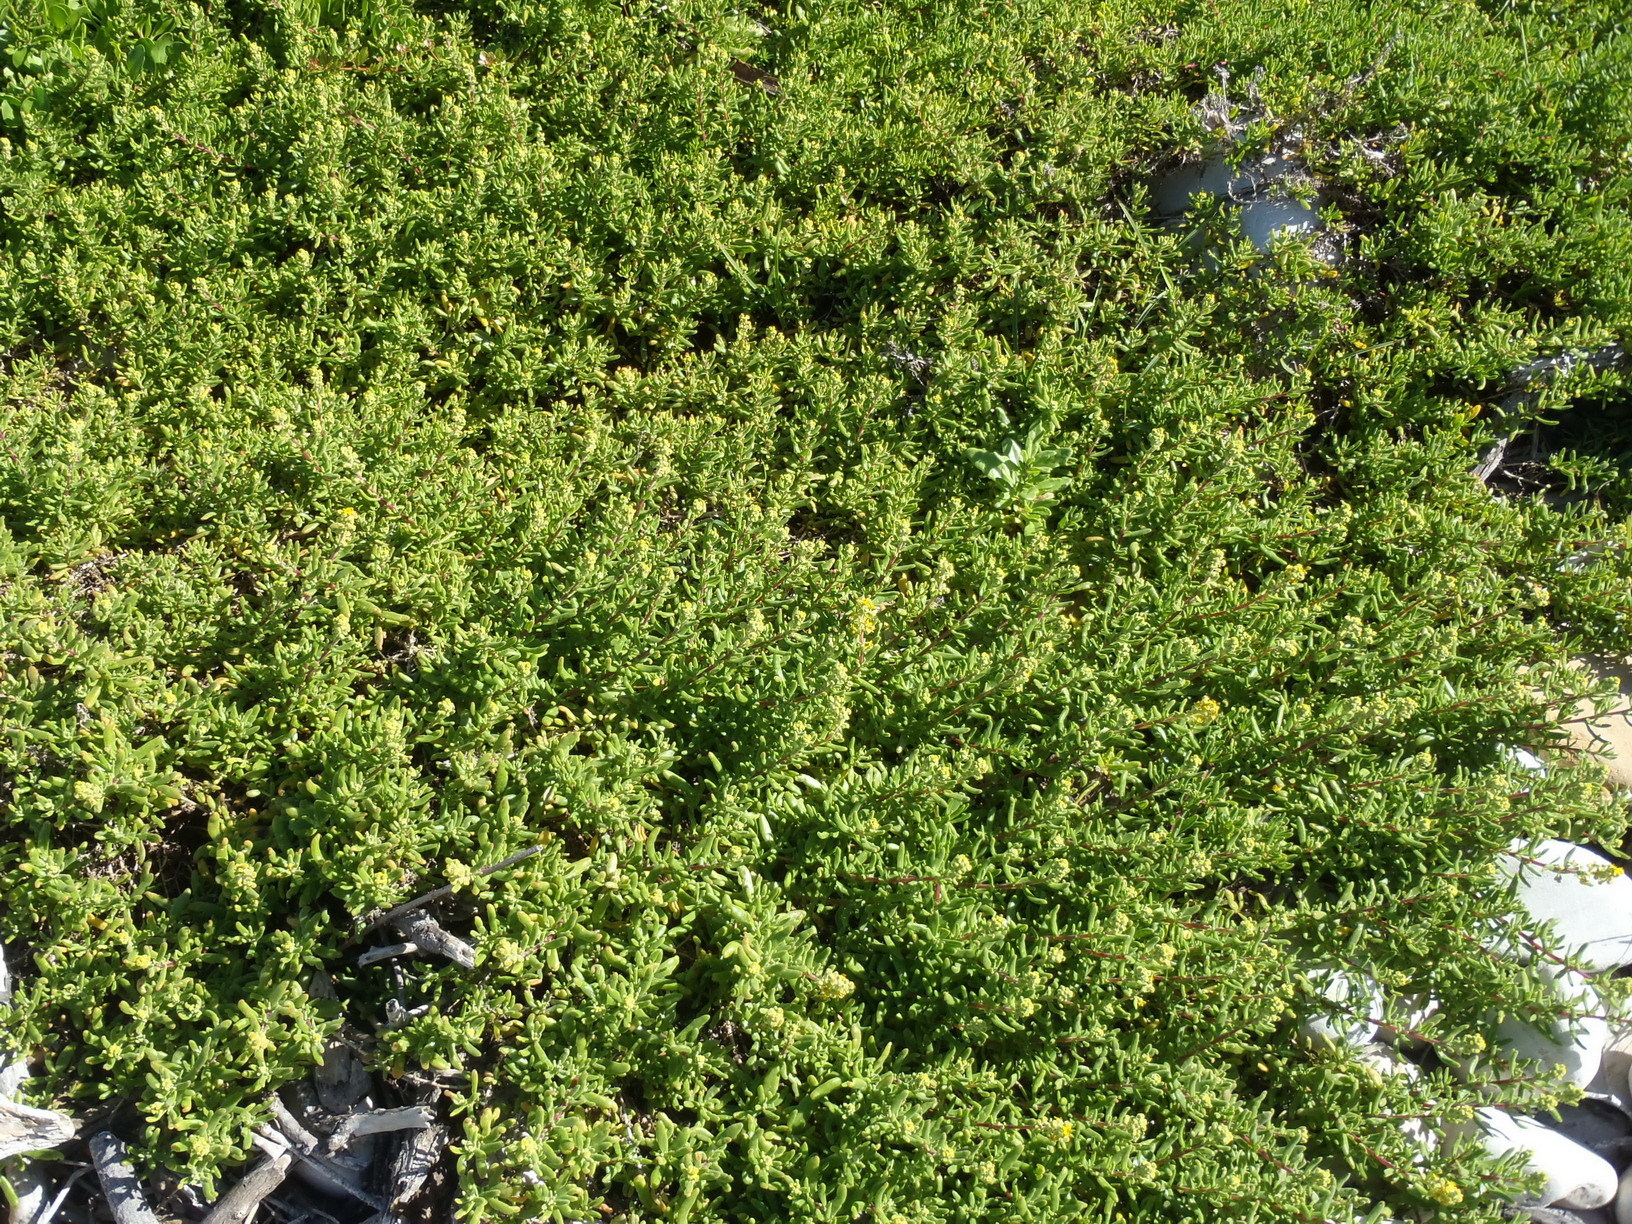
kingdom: Plantae
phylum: Tracheophyta
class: Magnoliopsida
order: Caryophyllales
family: Aizoaceae
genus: Tetragonia
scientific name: Tetragonia fruticosa
